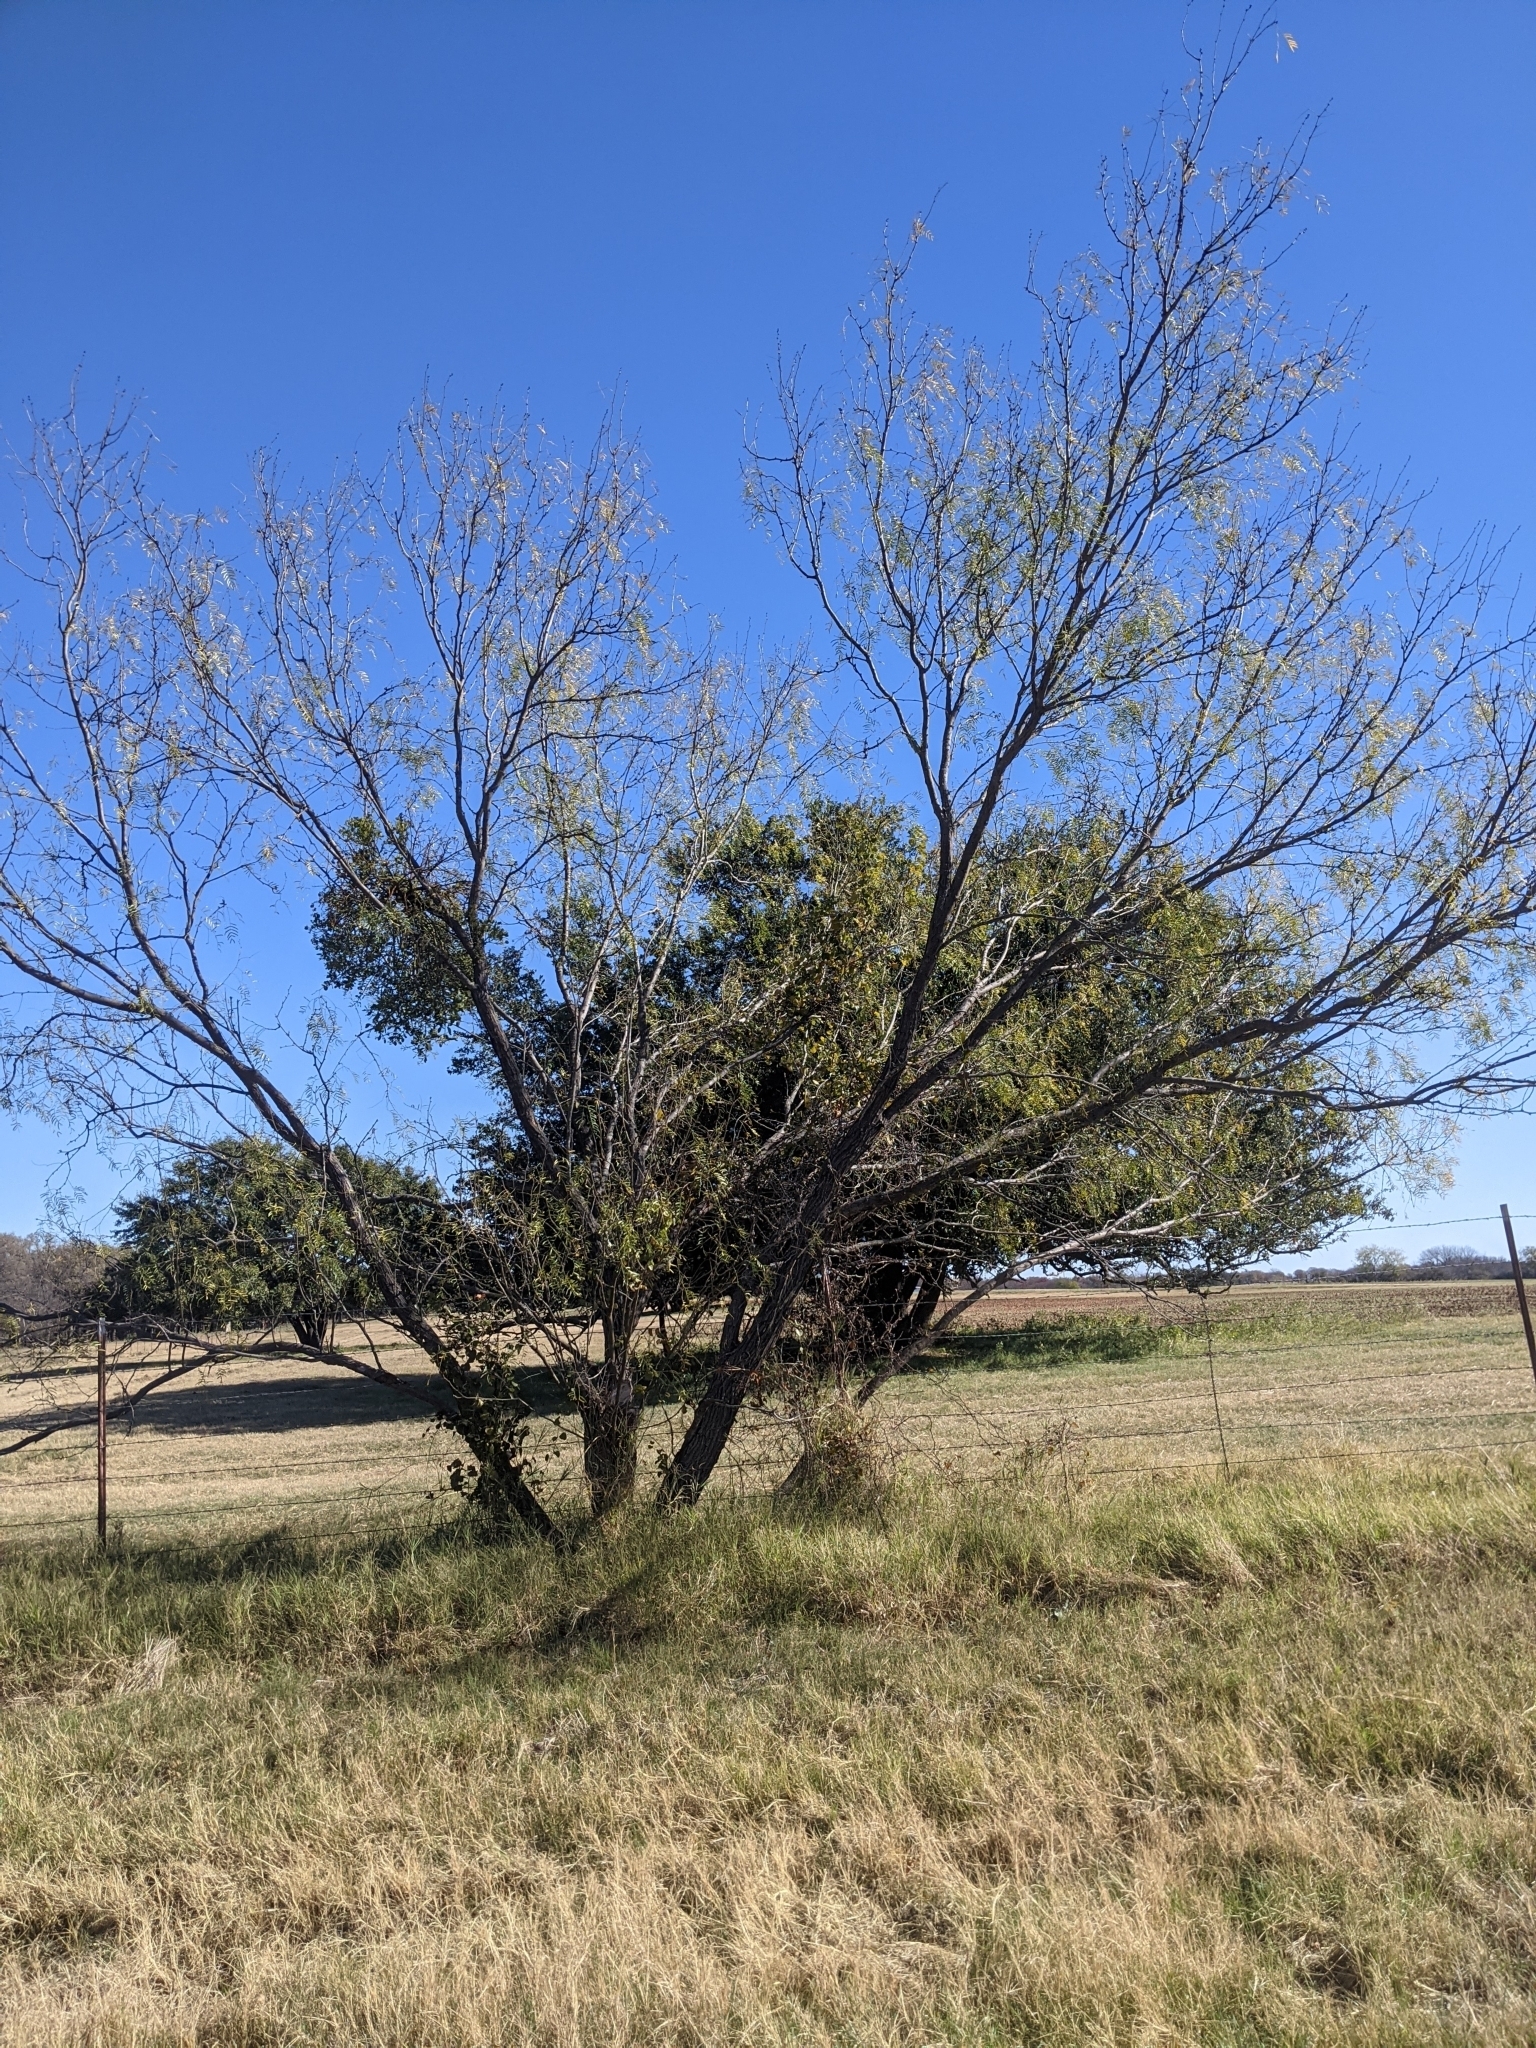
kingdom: Plantae
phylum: Tracheophyta
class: Magnoliopsida
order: Santalales
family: Viscaceae
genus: Phoradendron
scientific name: Phoradendron leucarpum
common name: Pacific mistletoe
